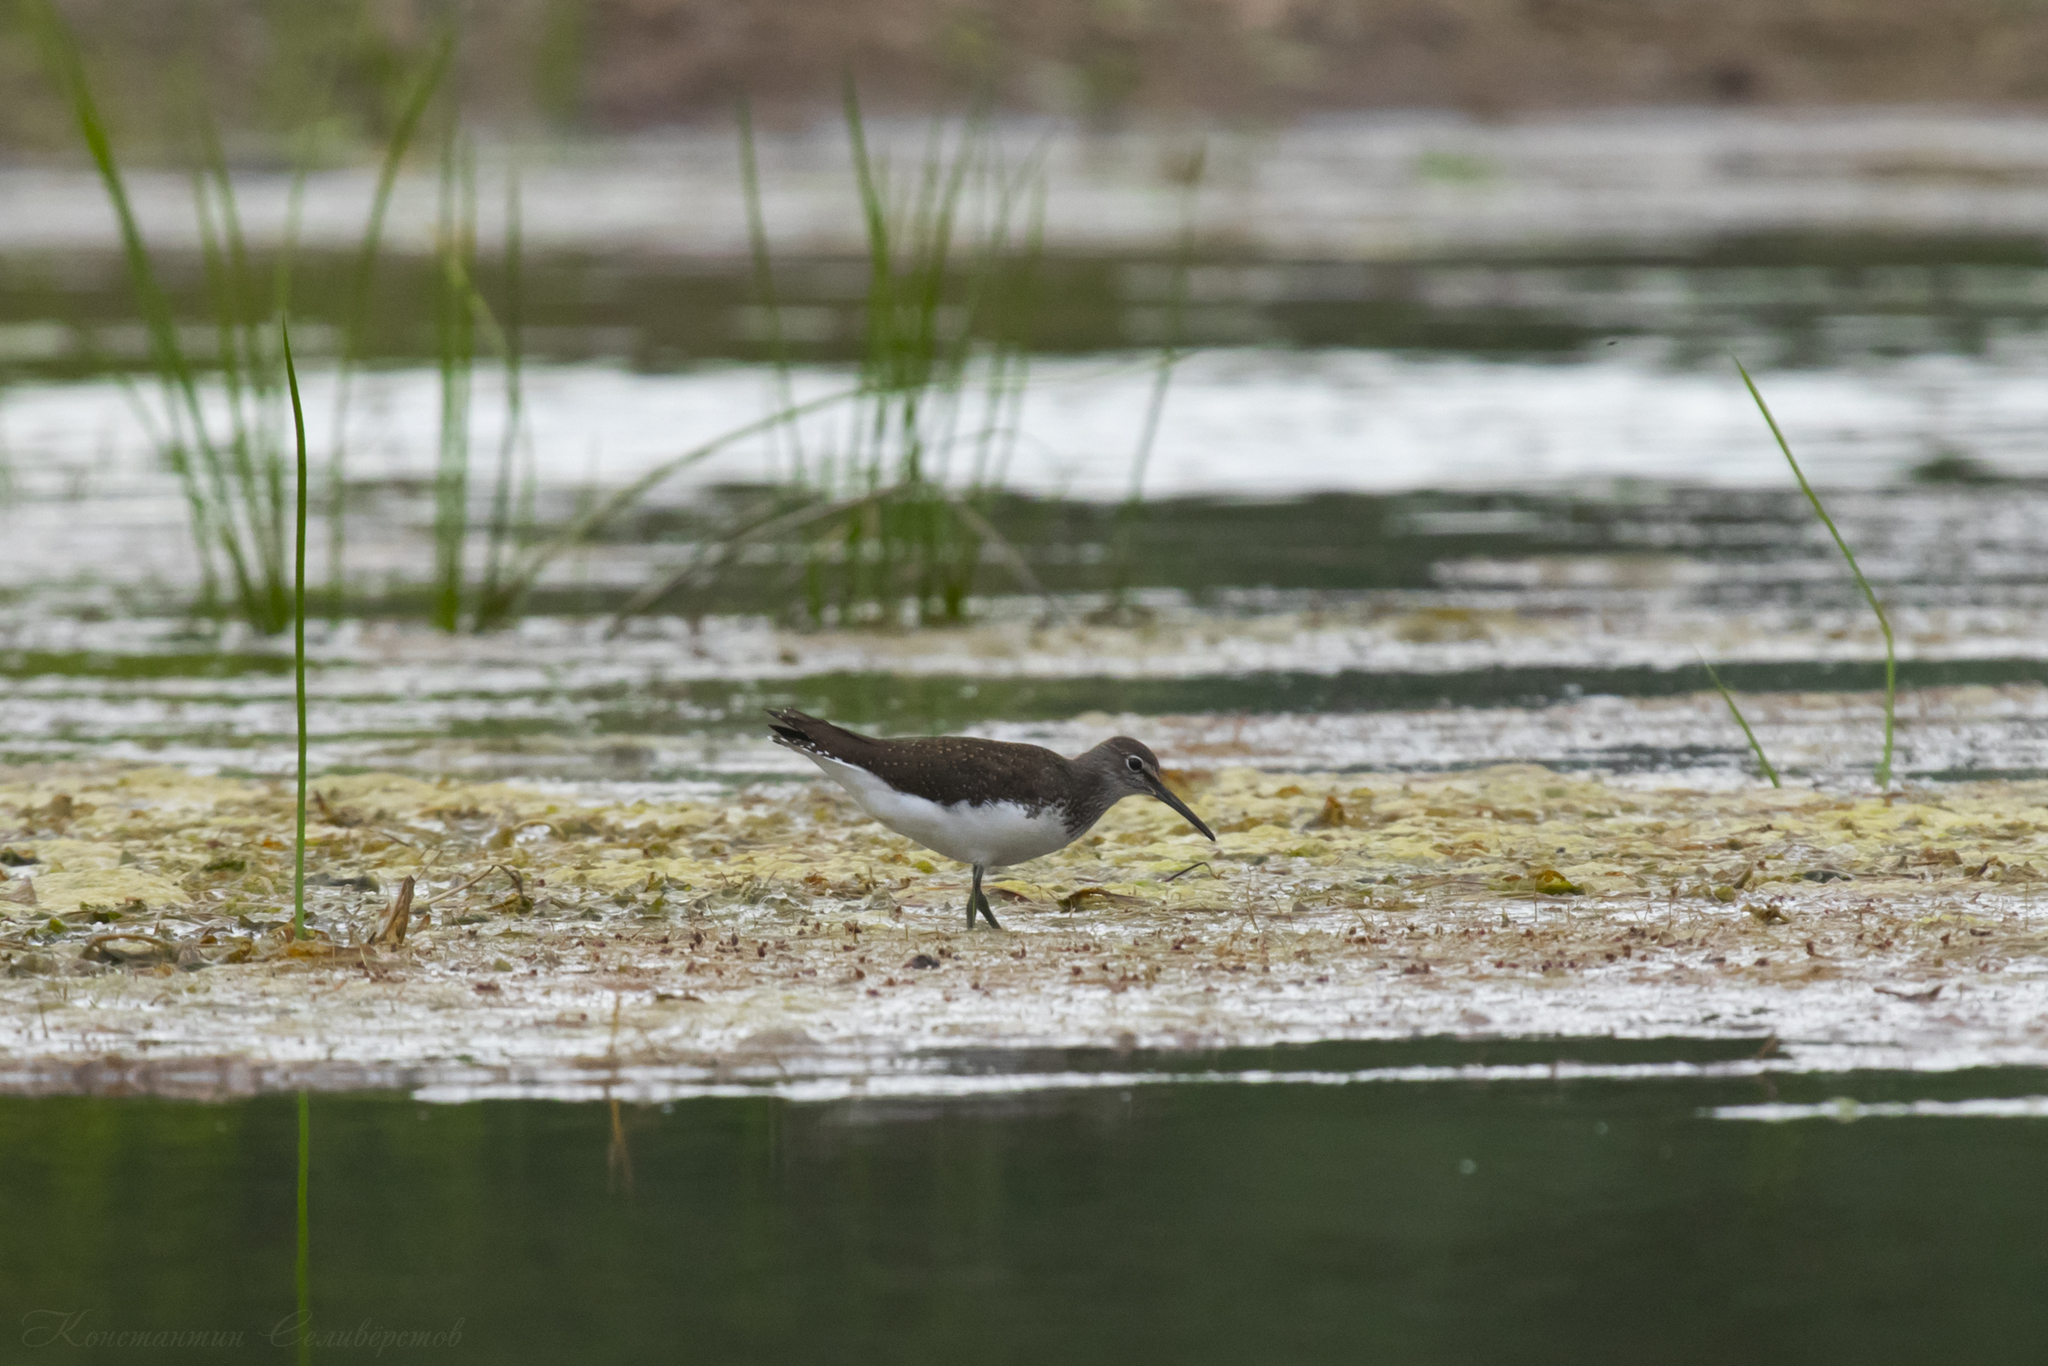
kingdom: Animalia
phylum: Chordata
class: Aves
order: Charadriiformes
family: Scolopacidae
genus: Tringa
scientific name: Tringa ochropus
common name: Green sandpiper
